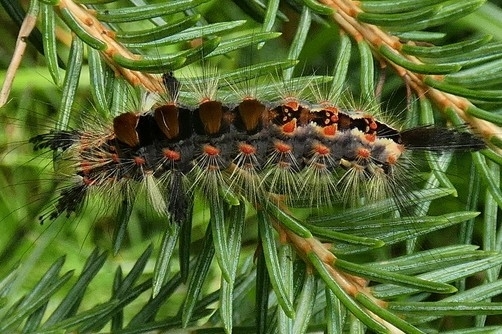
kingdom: Animalia
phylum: Arthropoda
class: Insecta
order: Lepidoptera
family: Erebidae
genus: Orgyia
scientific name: Orgyia antiqua
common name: Vapourer
